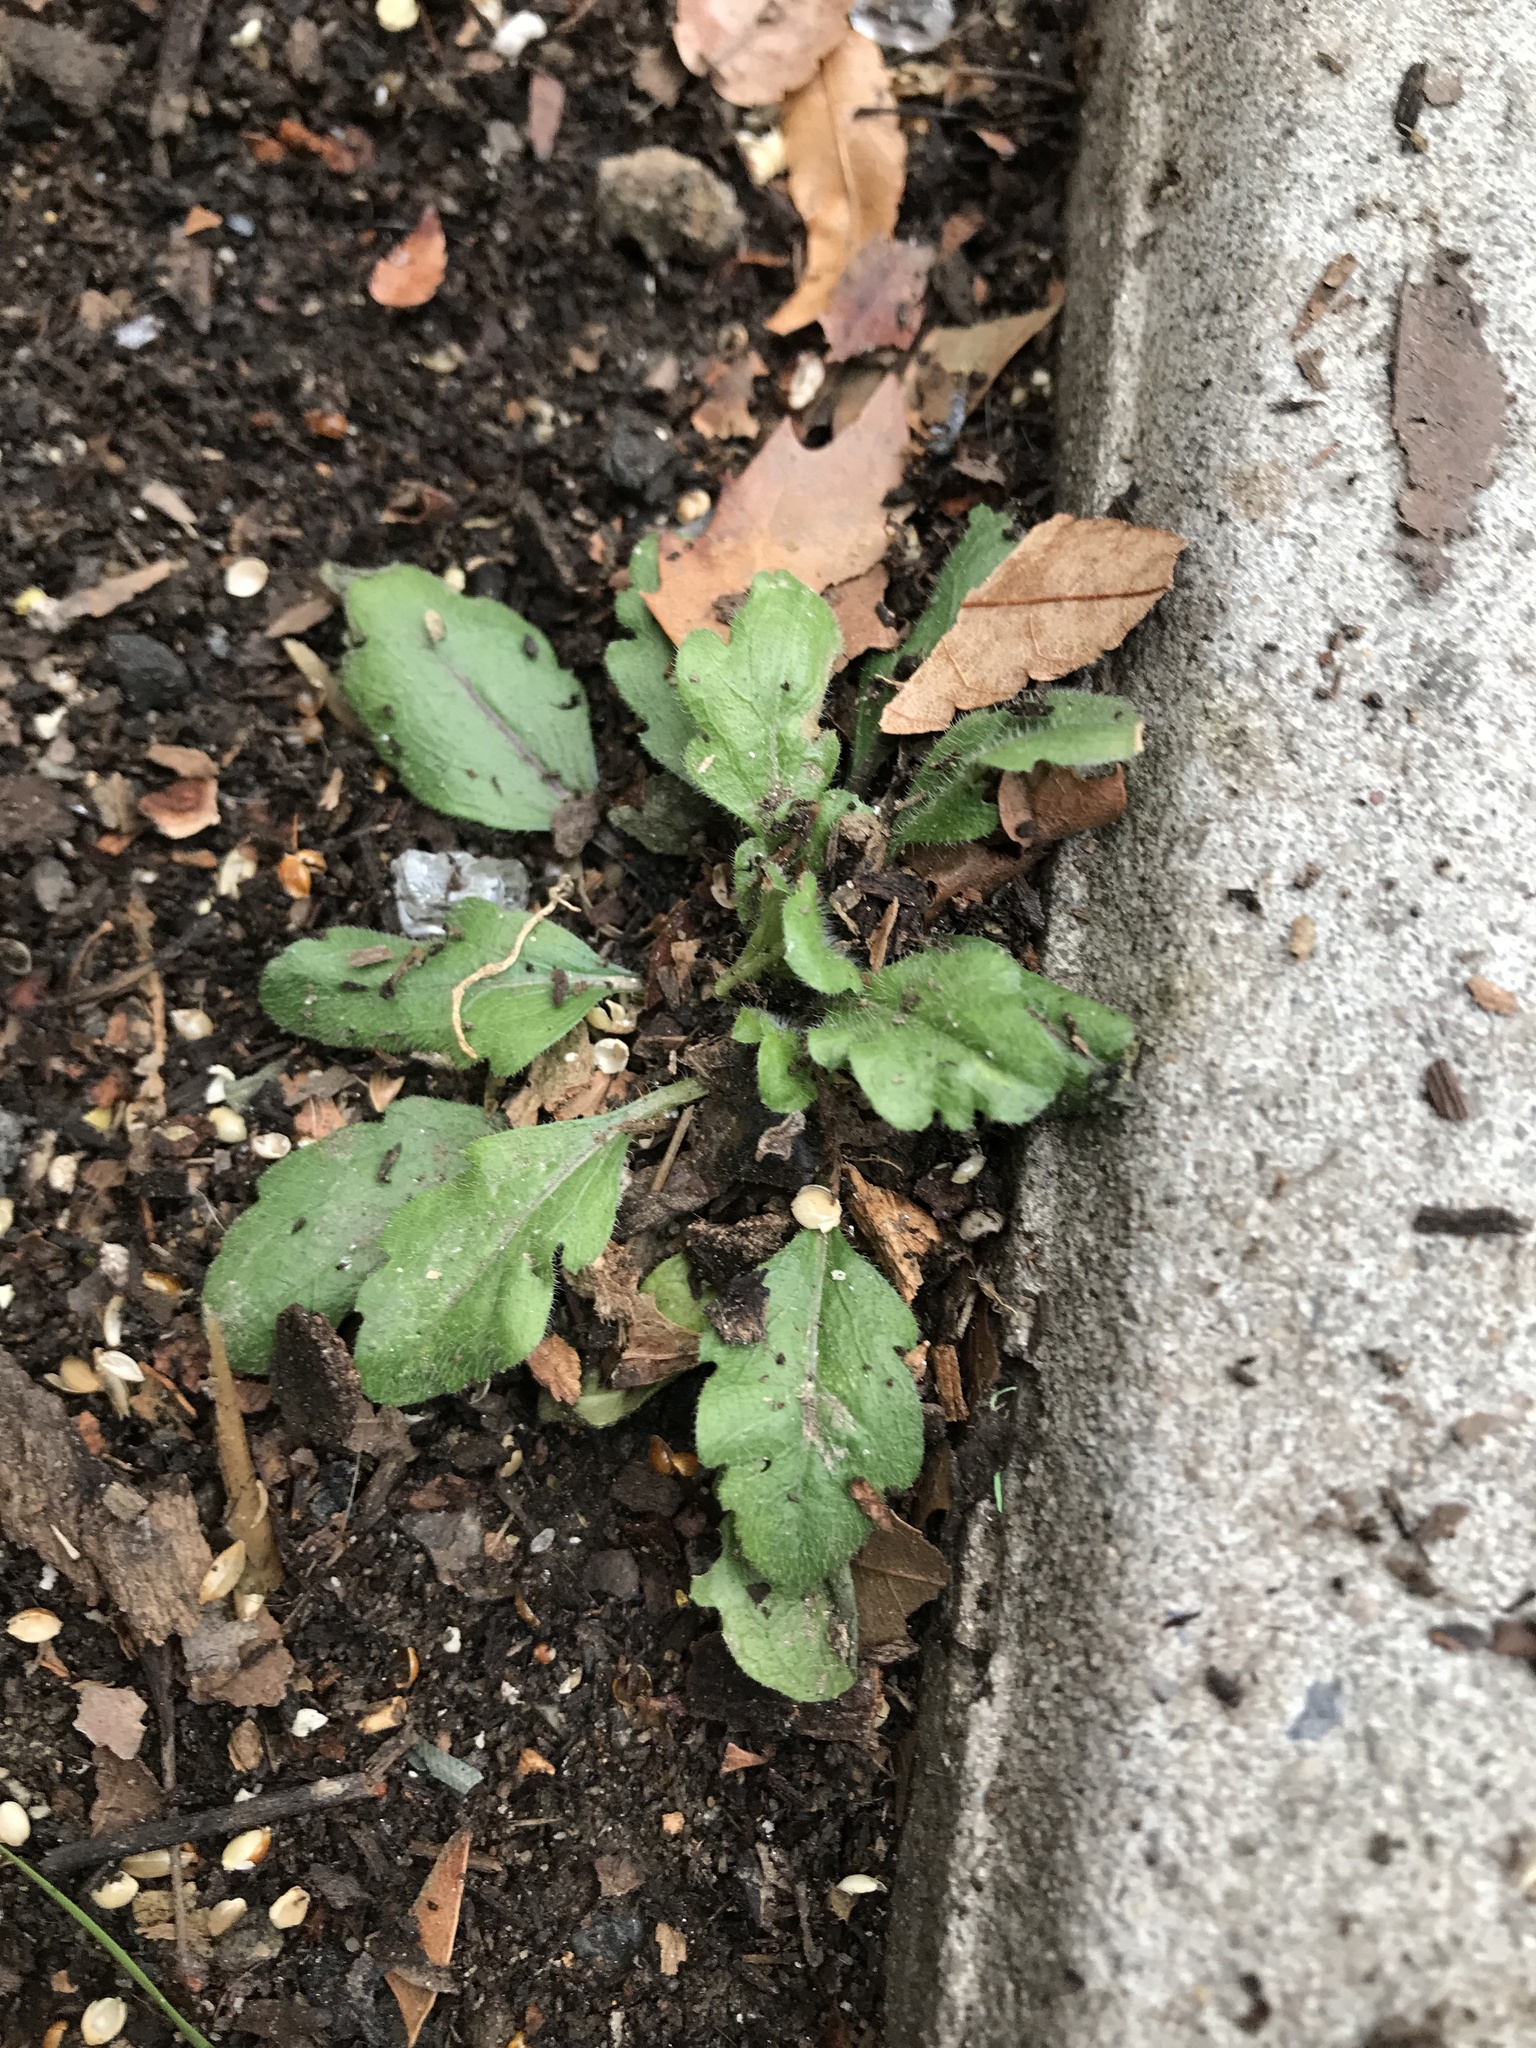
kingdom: Plantae
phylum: Tracheophyta
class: Magnoliopsida
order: Asterales
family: Asteraceae
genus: Erigeron
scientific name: Erigeron canadensis
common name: Canadian fleabane
